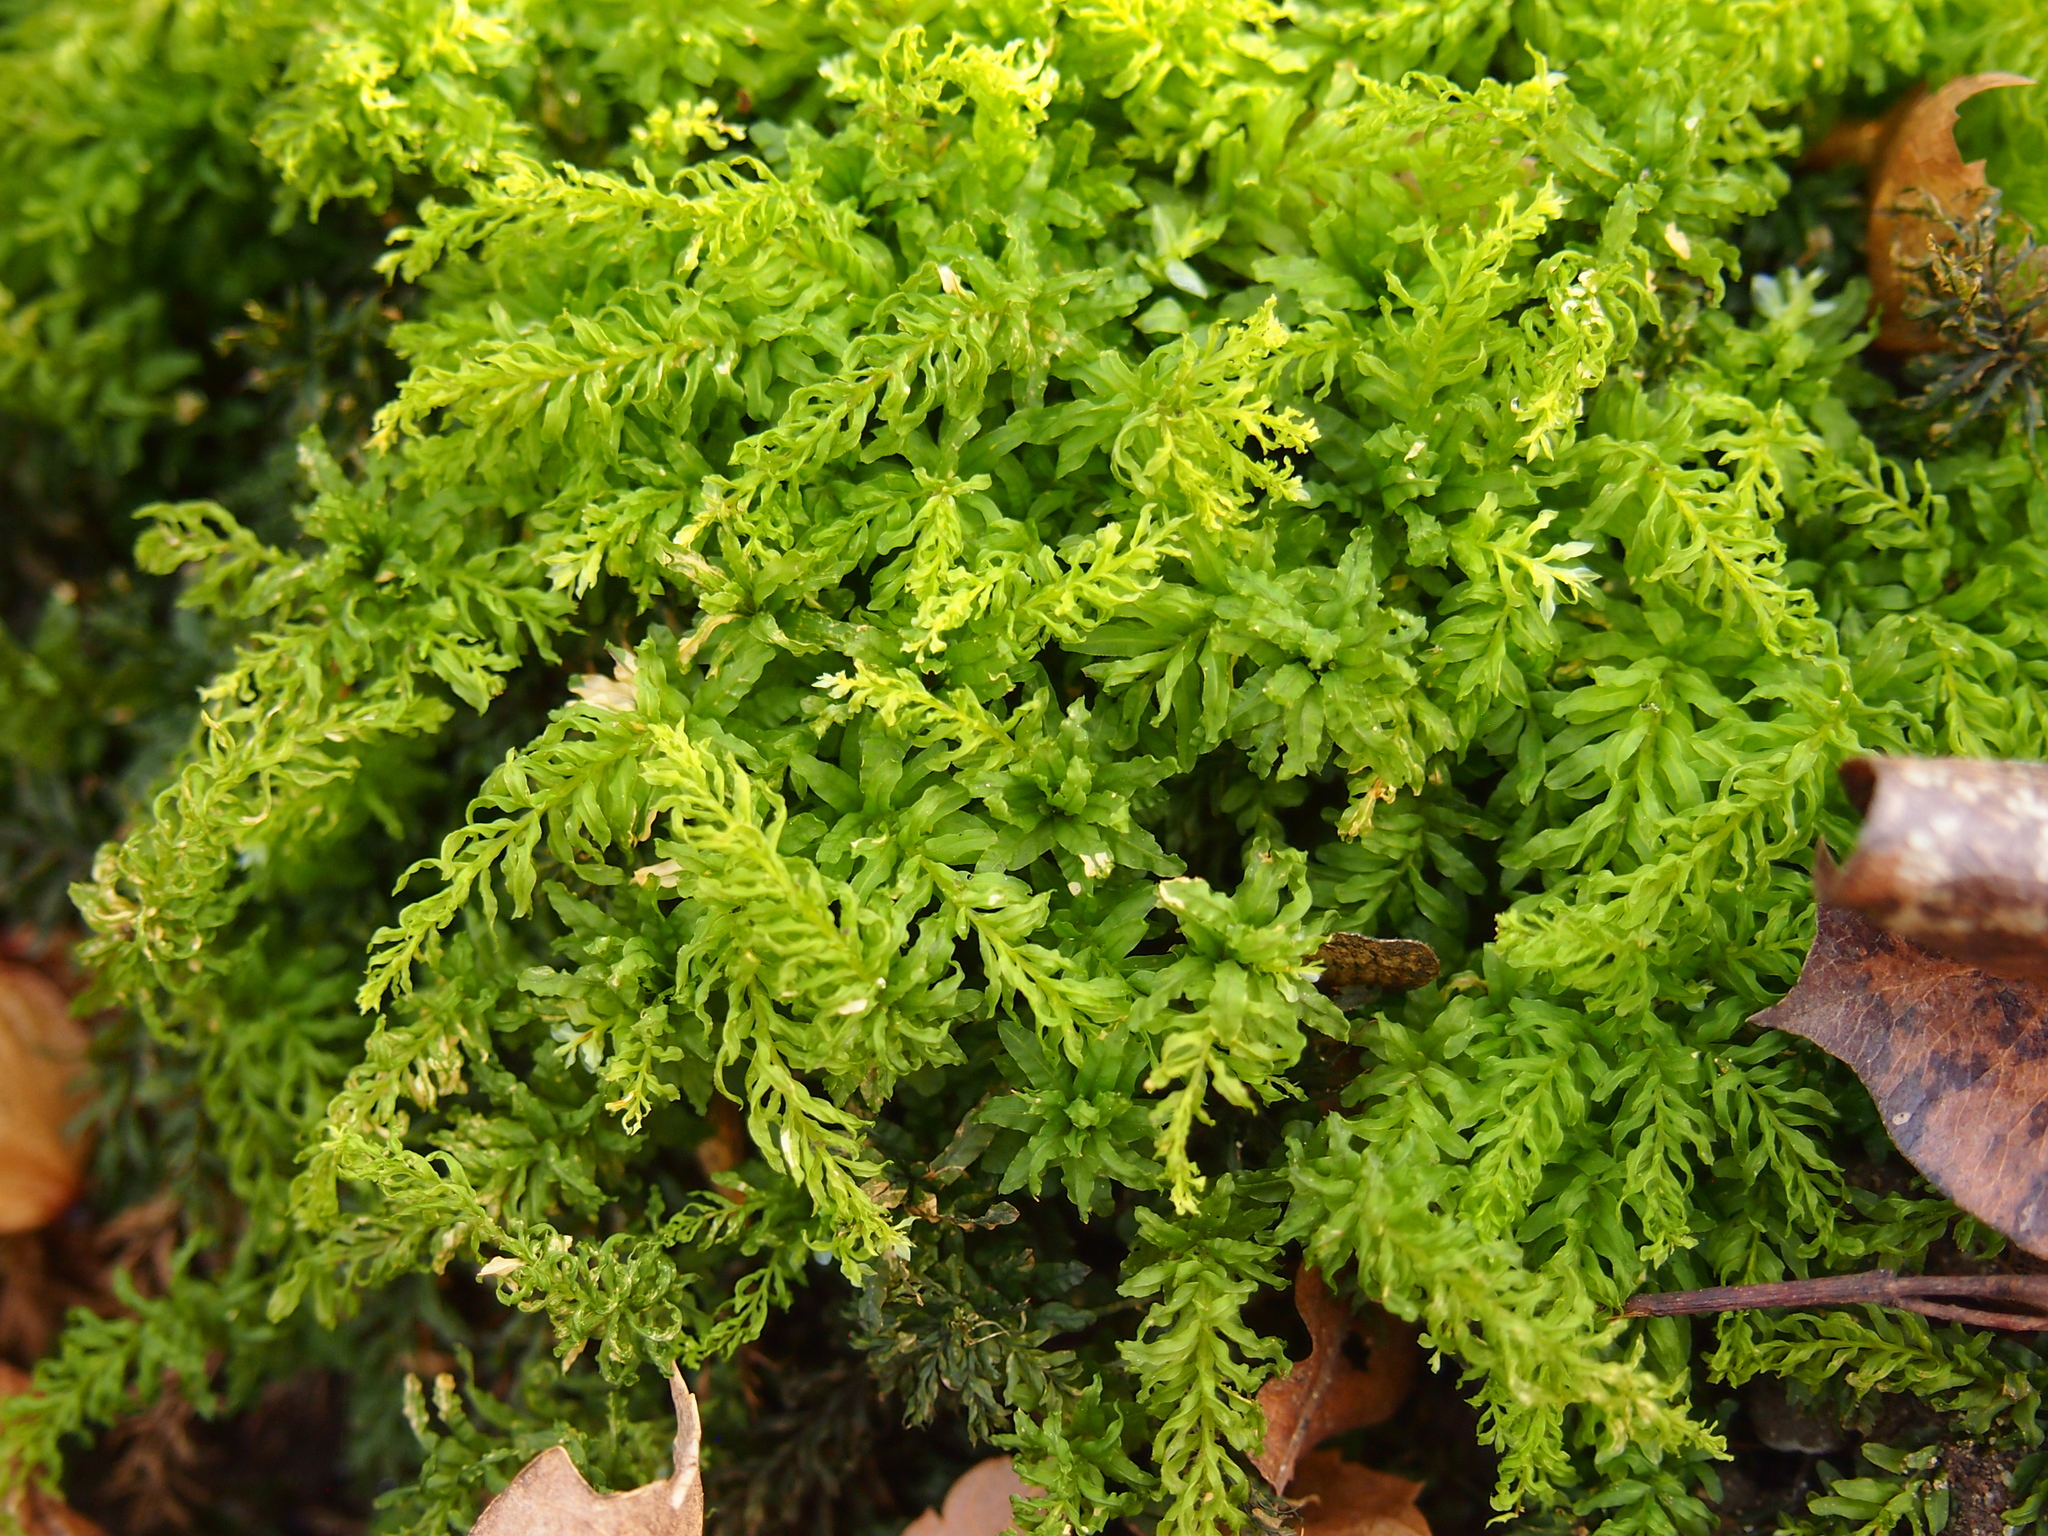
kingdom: Plantae
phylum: Bryophyta
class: Bryopsida
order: Bryales
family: Mniaceae
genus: Plagiomnium
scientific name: Plagiomnium undulatum
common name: Hart's-tongue thyme-moss
